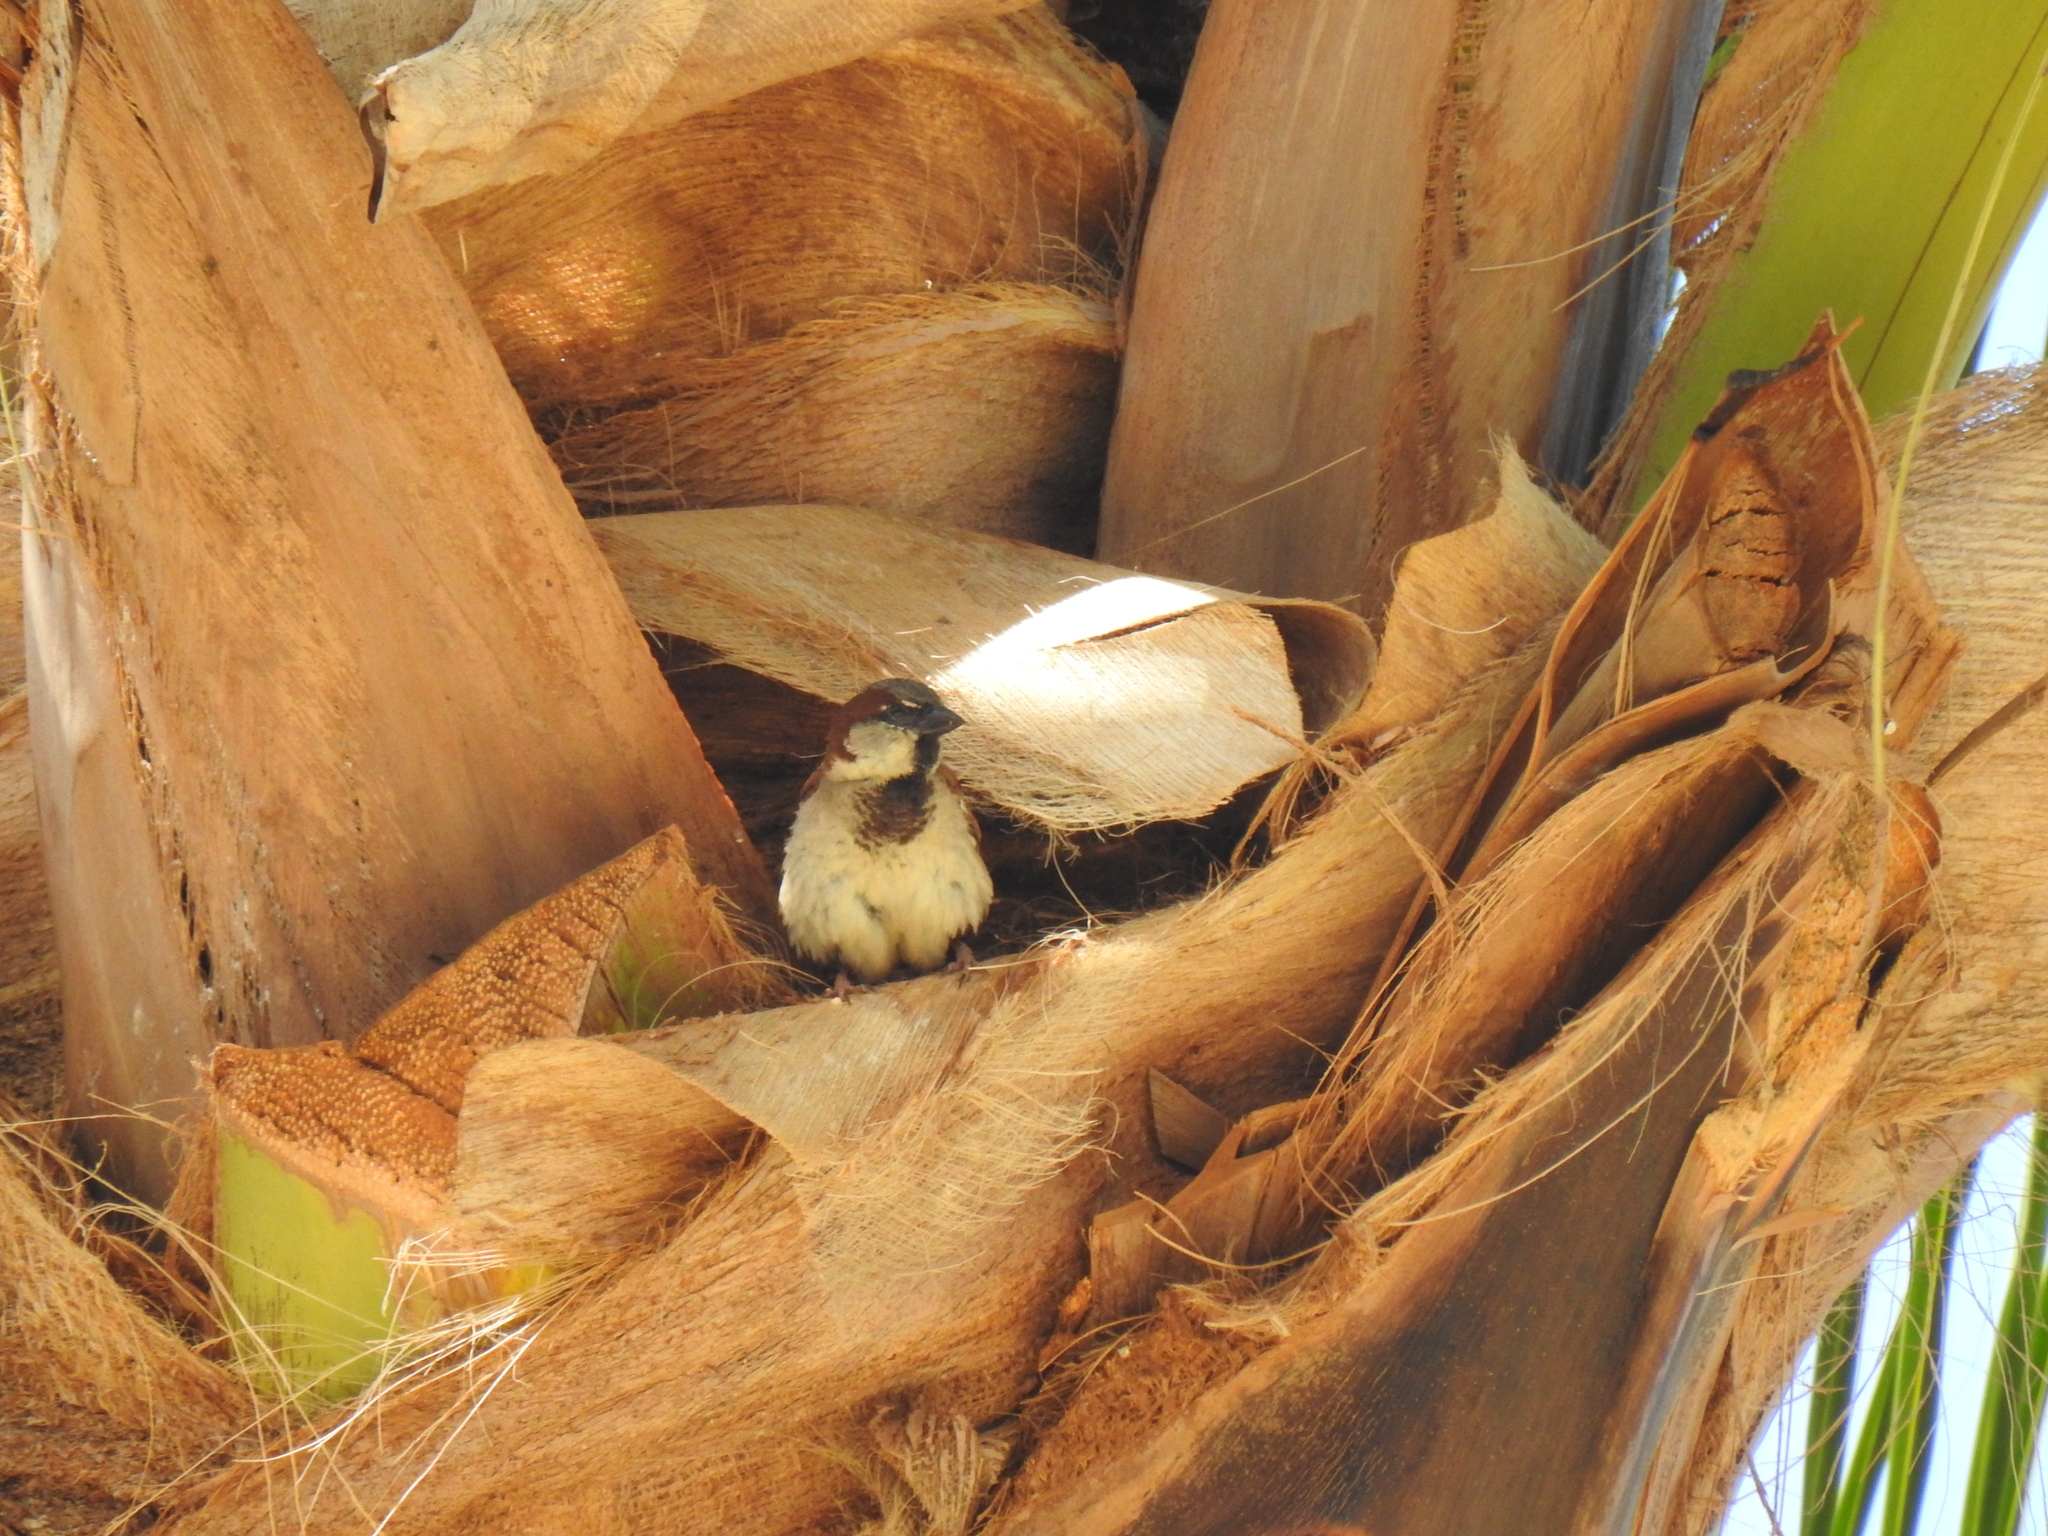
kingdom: Animalia
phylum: Chordata
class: Aves
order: Passeriformes
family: Passeridae
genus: Passer
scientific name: Passer domesticus
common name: House sparrow
